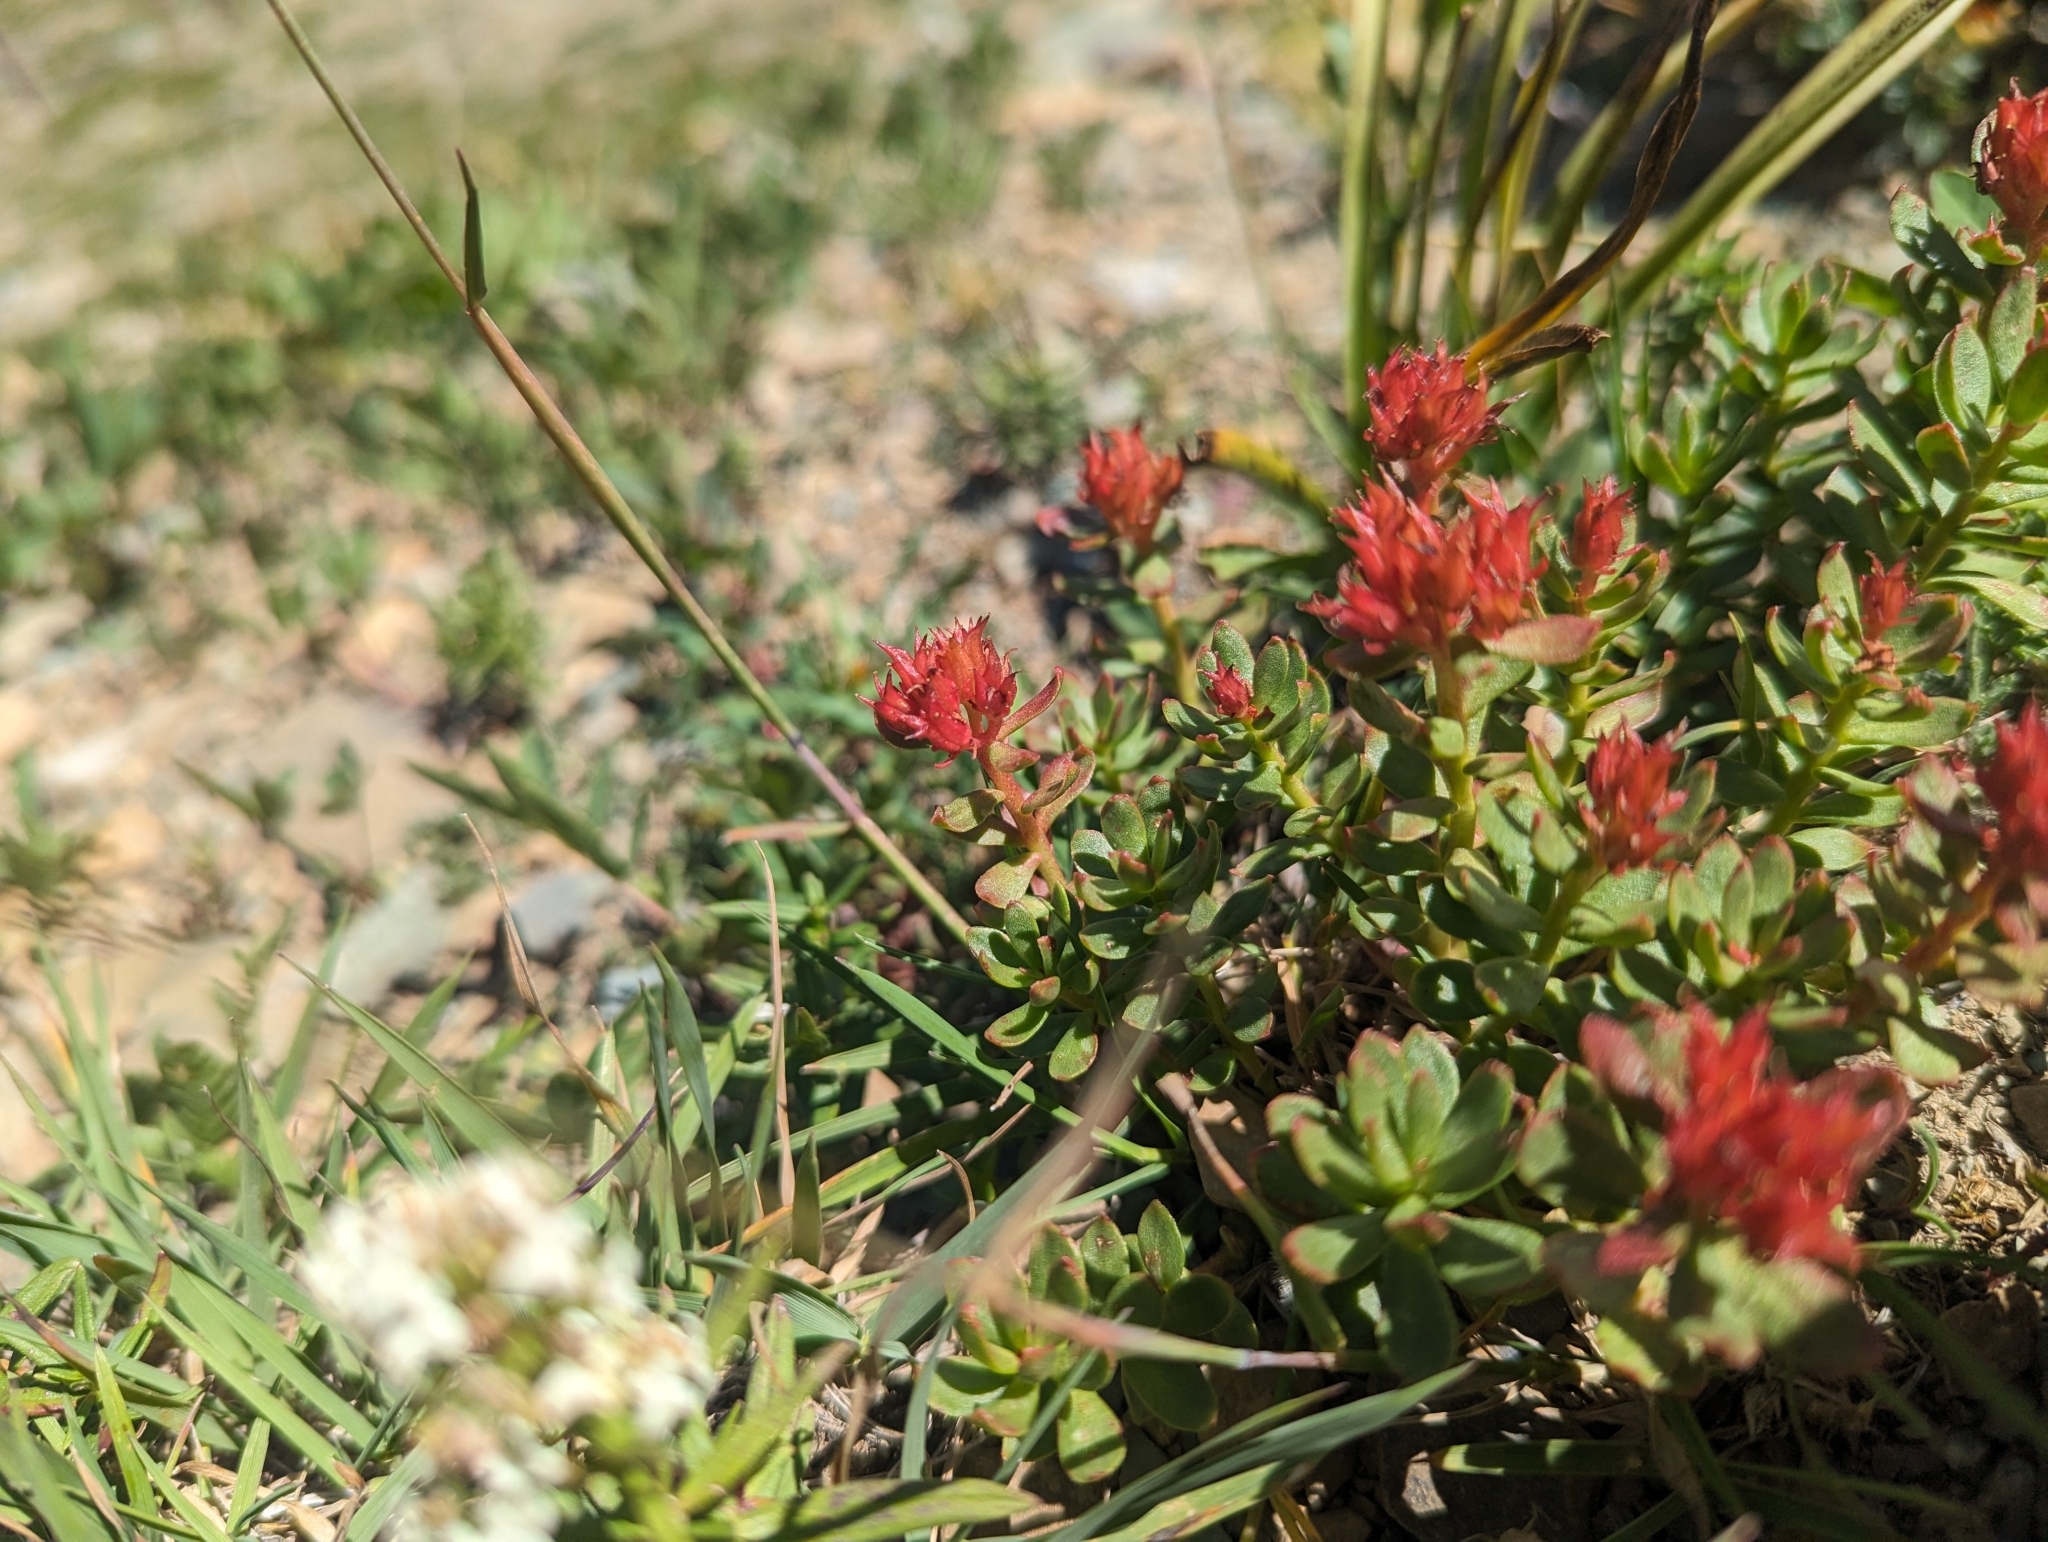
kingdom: Plantae
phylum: Tracheophyta
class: Magnoliopsida
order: Saxifragales
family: Crassulaceae
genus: Rhodiola
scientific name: Rhodiola integrifolia
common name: Western roseroot
